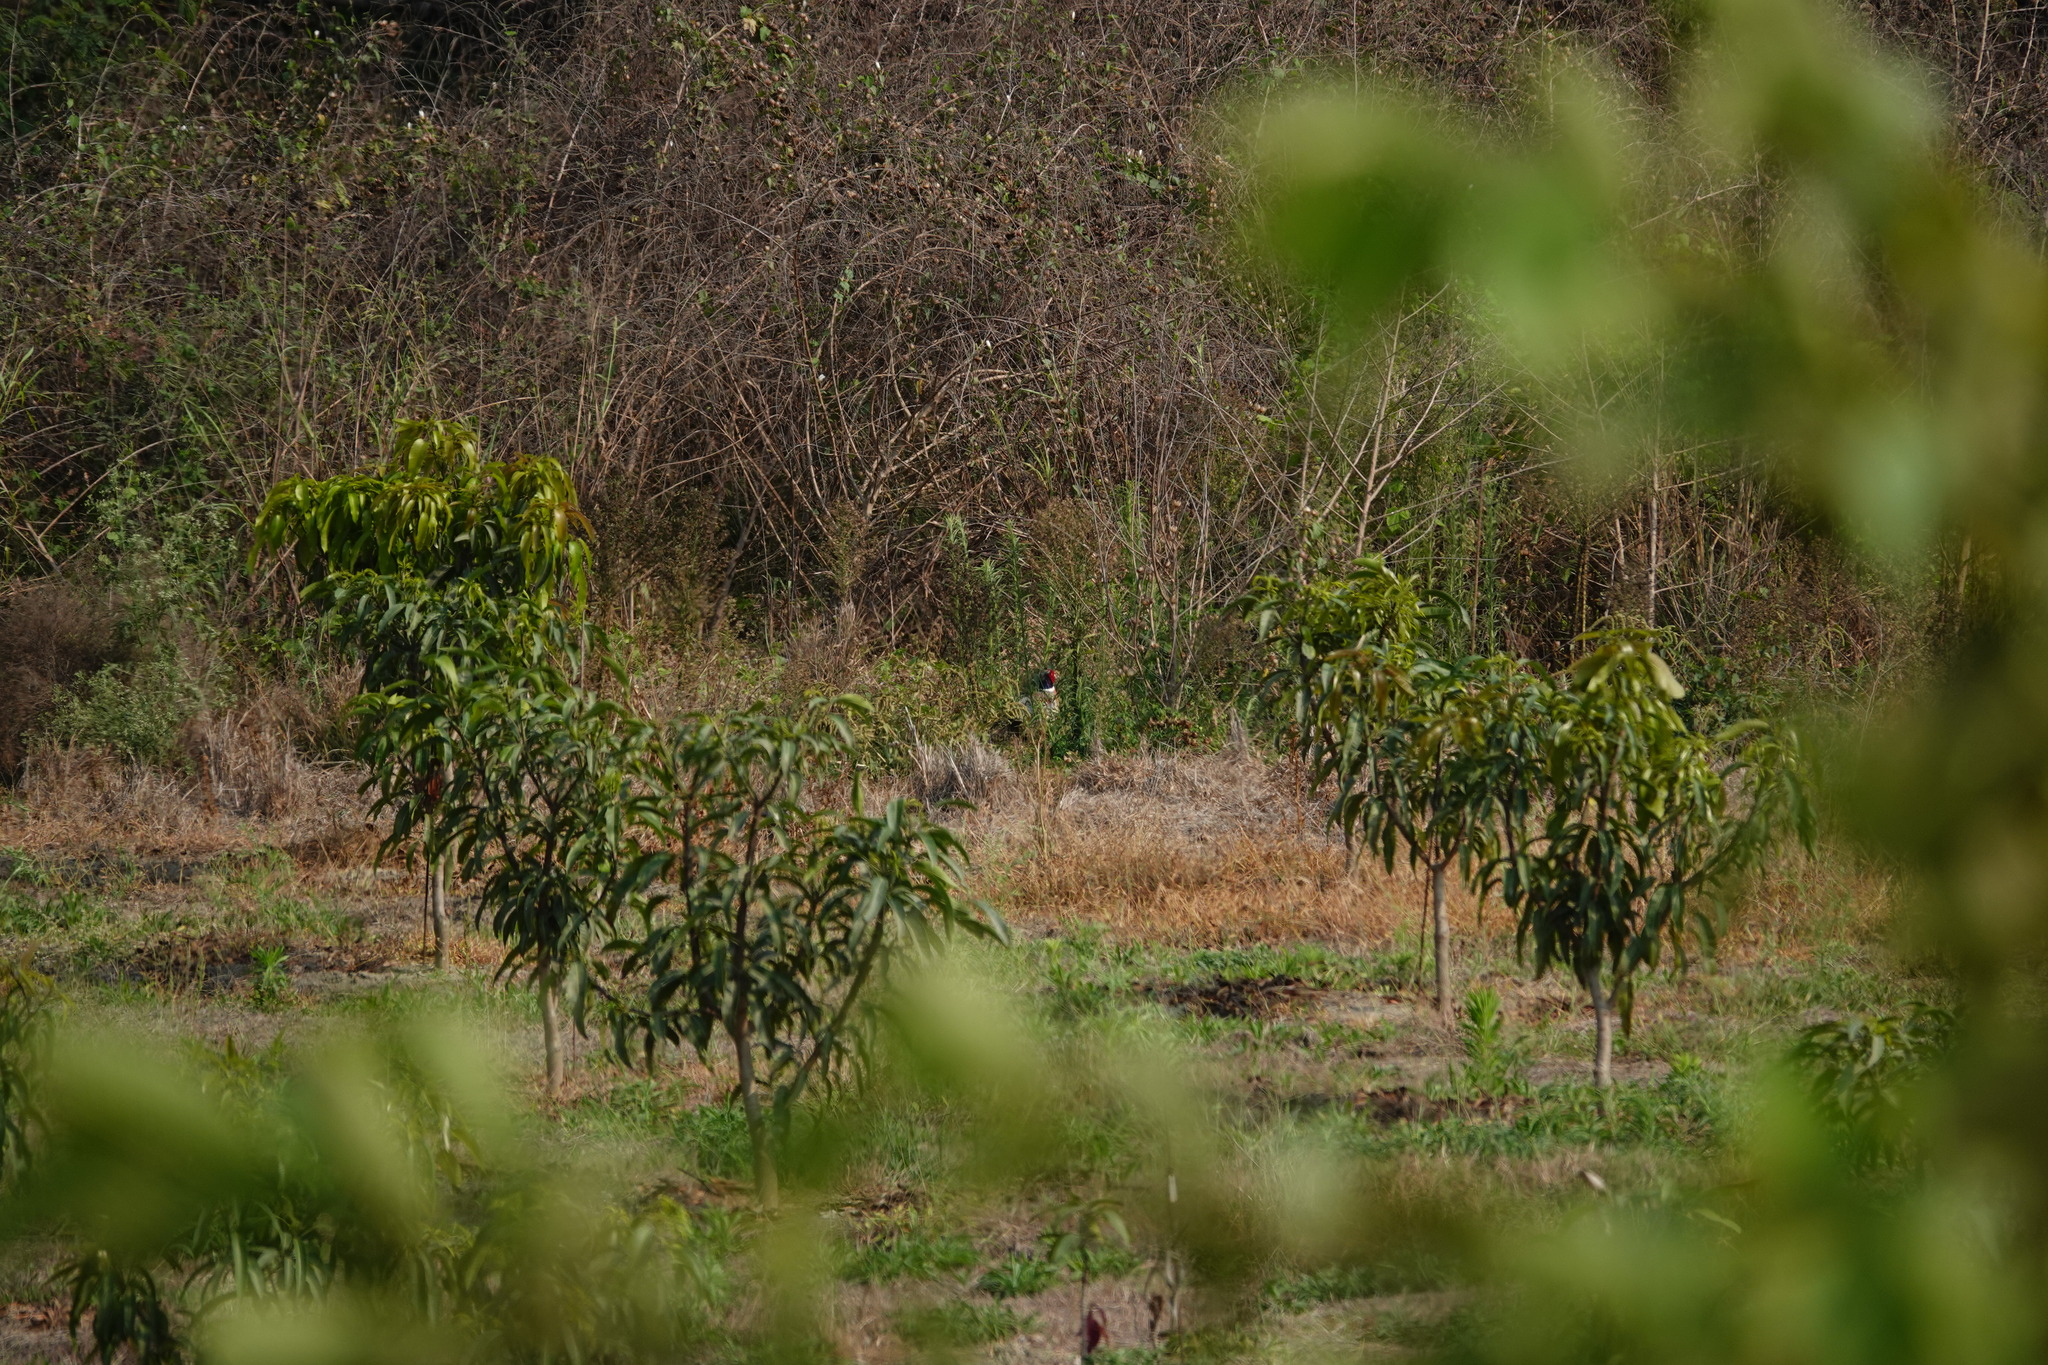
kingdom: Animalia
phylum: Chordata
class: Aves
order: Galliformes
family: Phasianidae
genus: Phasianus
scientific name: Phasianus colchicus
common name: Common pheasant
